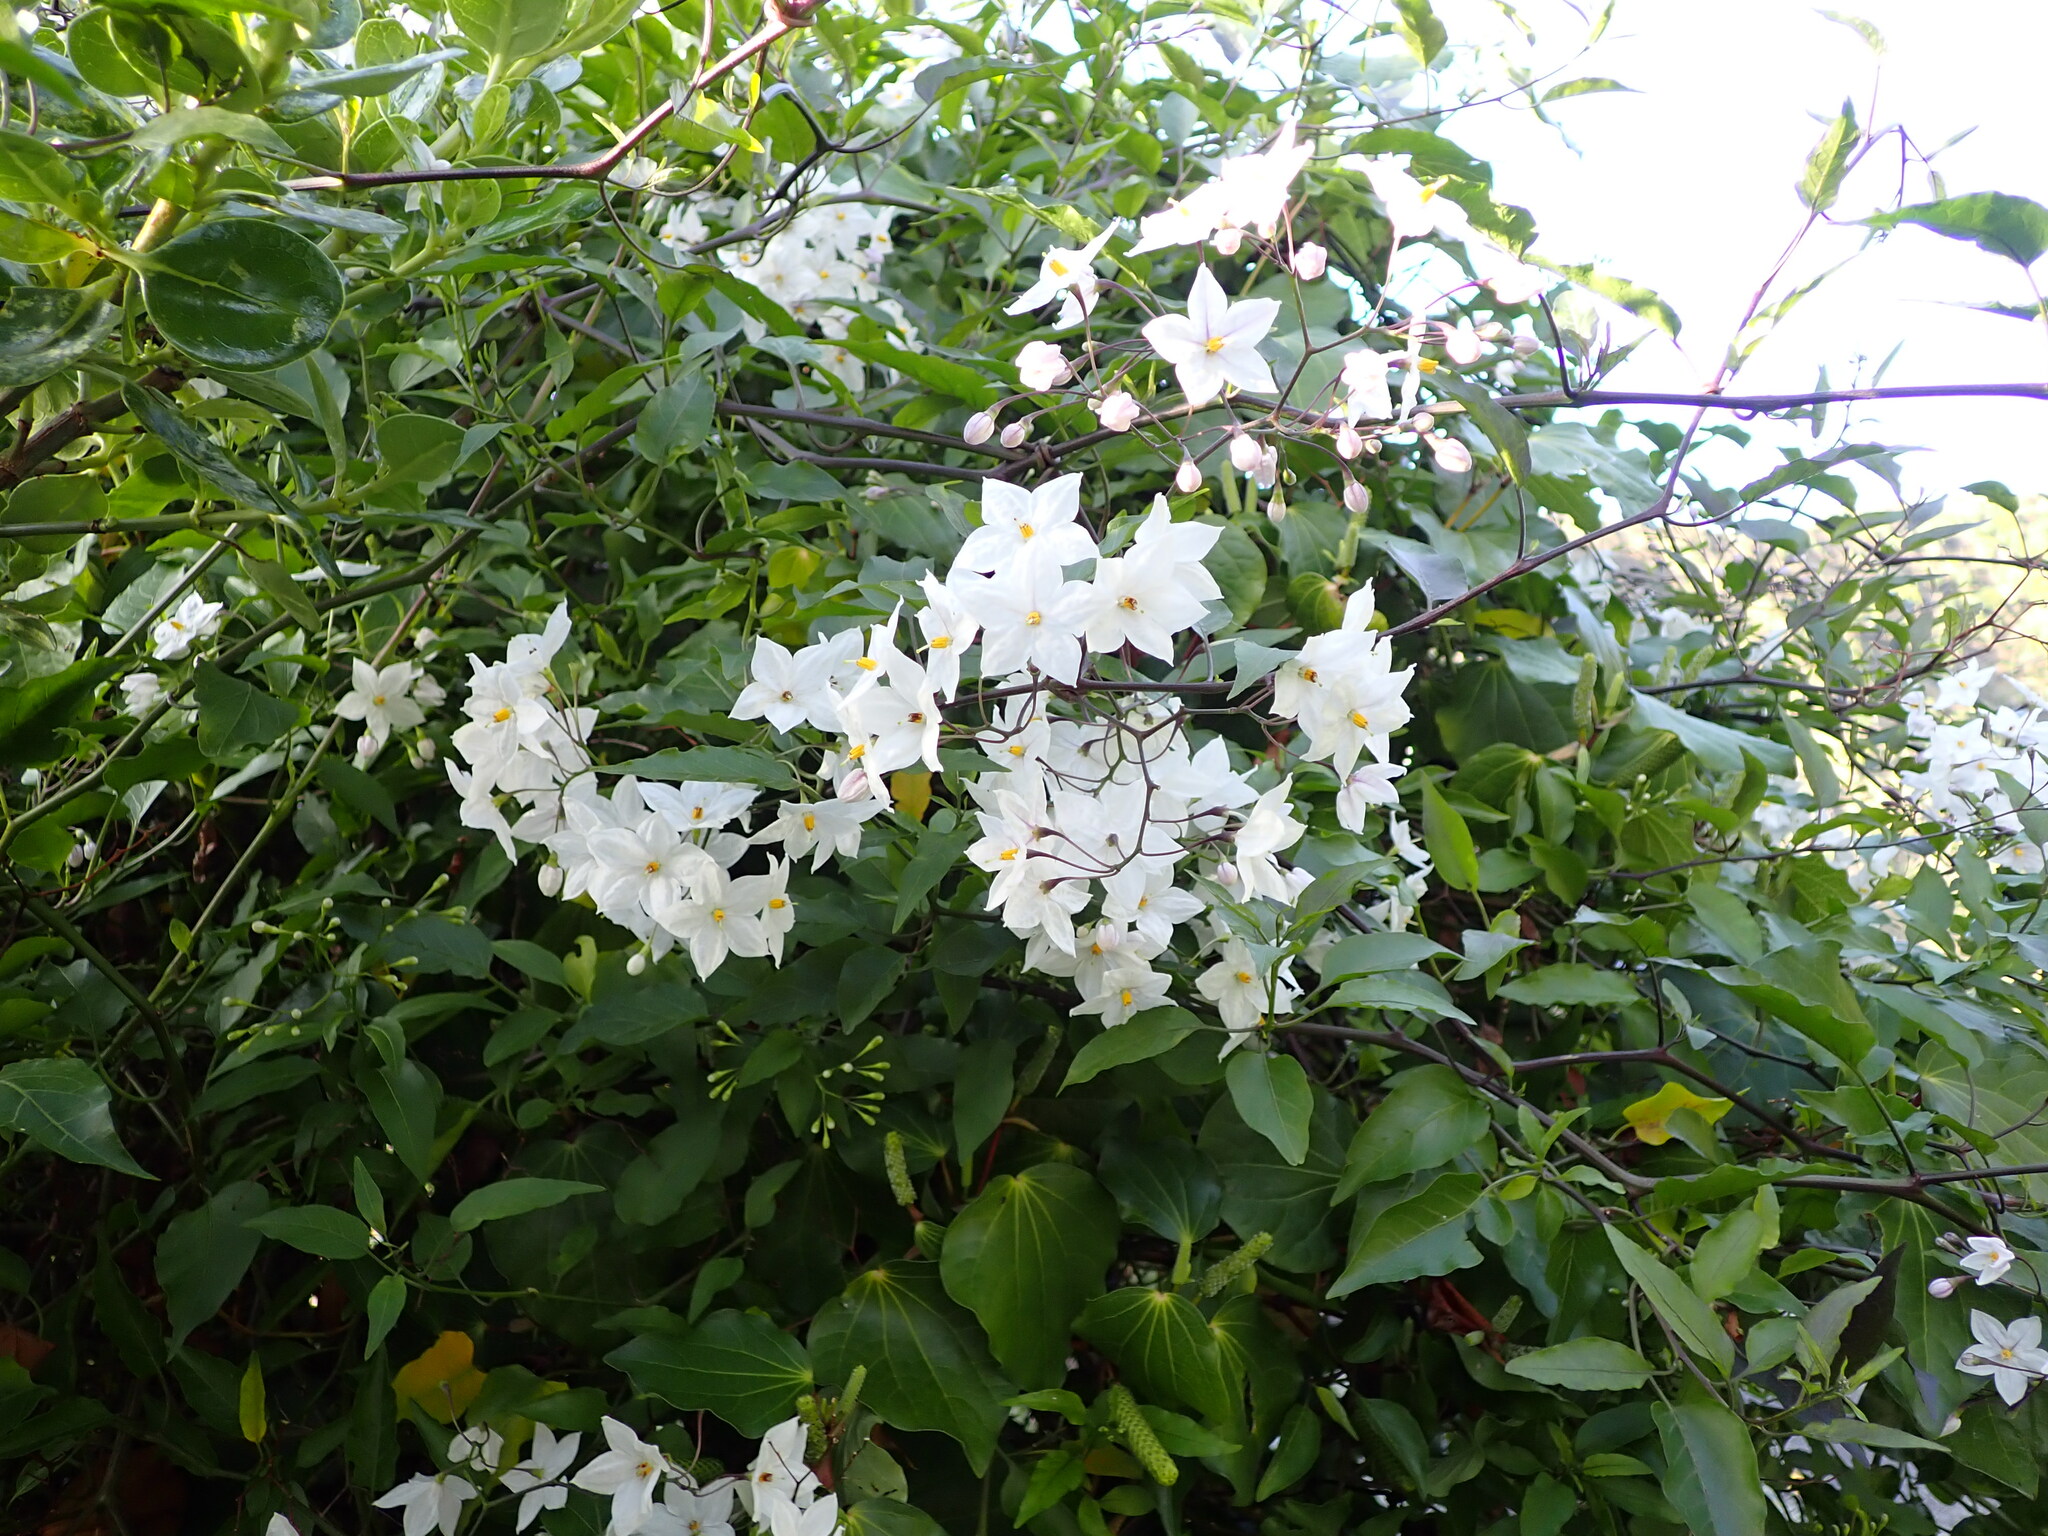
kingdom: Plantae
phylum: Tracheophyta
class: Magnoliopsida
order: Solanales
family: Solanaceae
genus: Solanum
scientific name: Solanum laxum
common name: Nightshade
